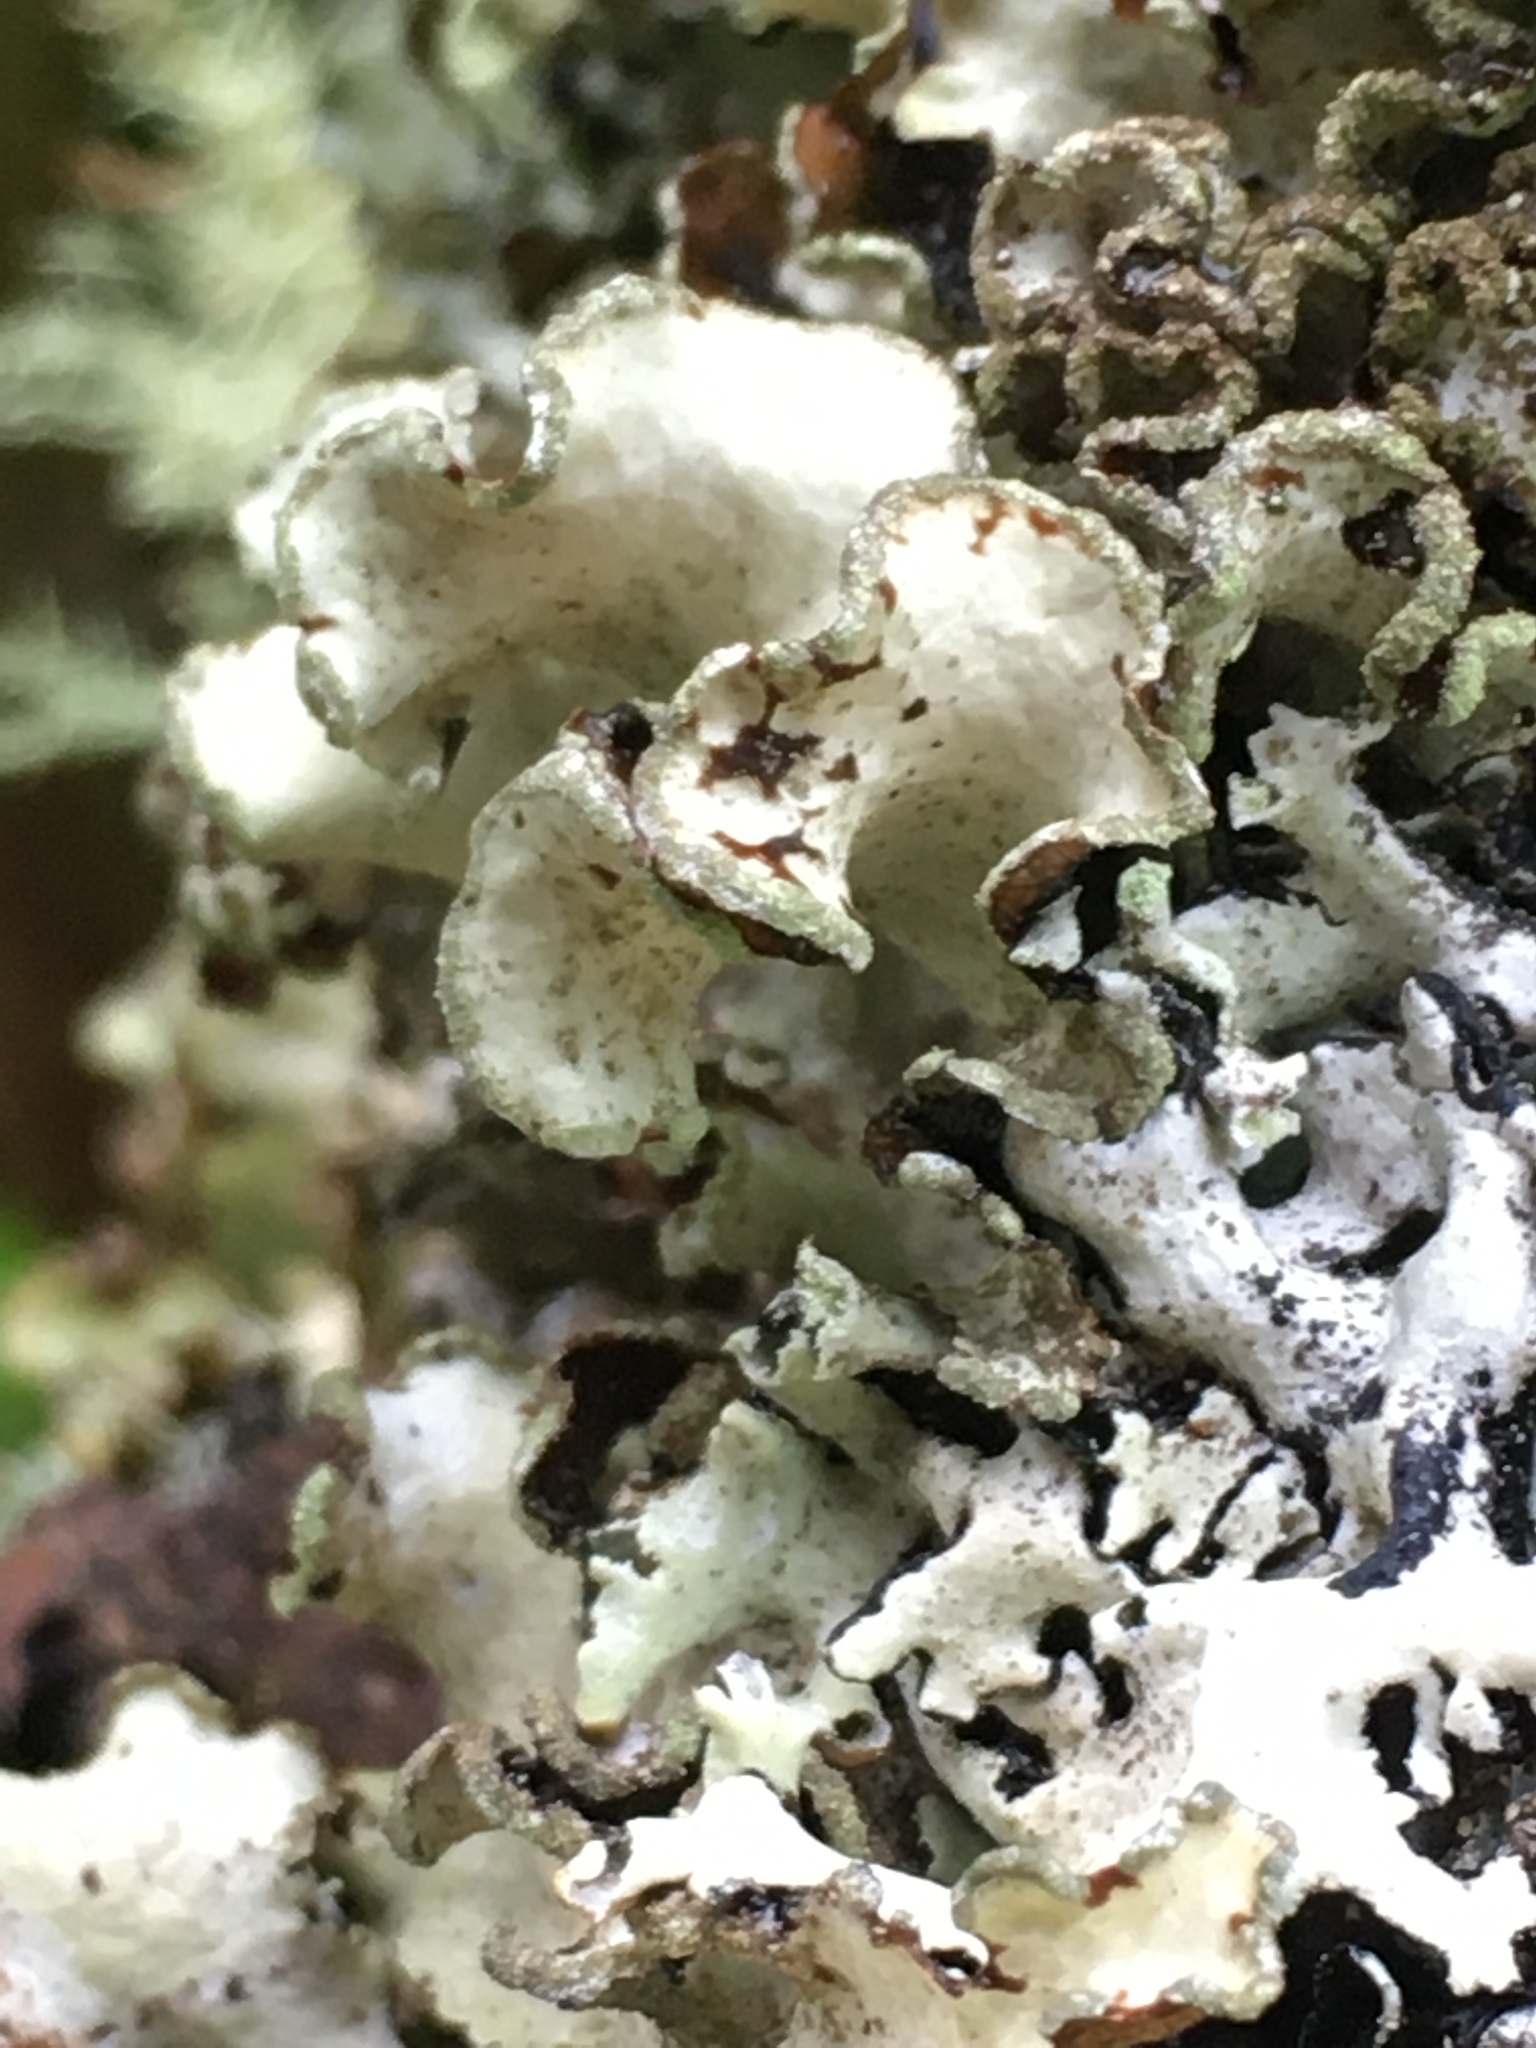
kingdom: Fungi
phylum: Ascomycota
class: Lecanoromycetes
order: Lecanorales
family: Parmeliaceae
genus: Cetrelia
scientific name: Cetrelia cetrarioides
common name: Speckled iceland lichen
